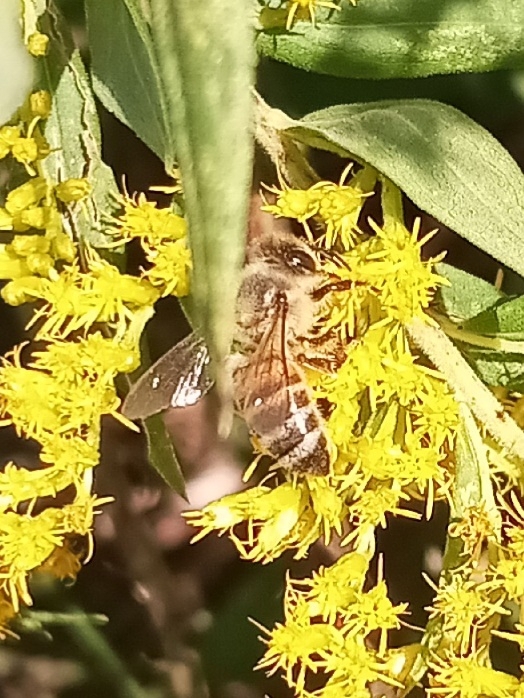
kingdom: Animalia
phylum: Arthropoda
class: Insecta
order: Hymenoptera
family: Apidae
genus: Apis
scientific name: Apis mellifera
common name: Honey bee
